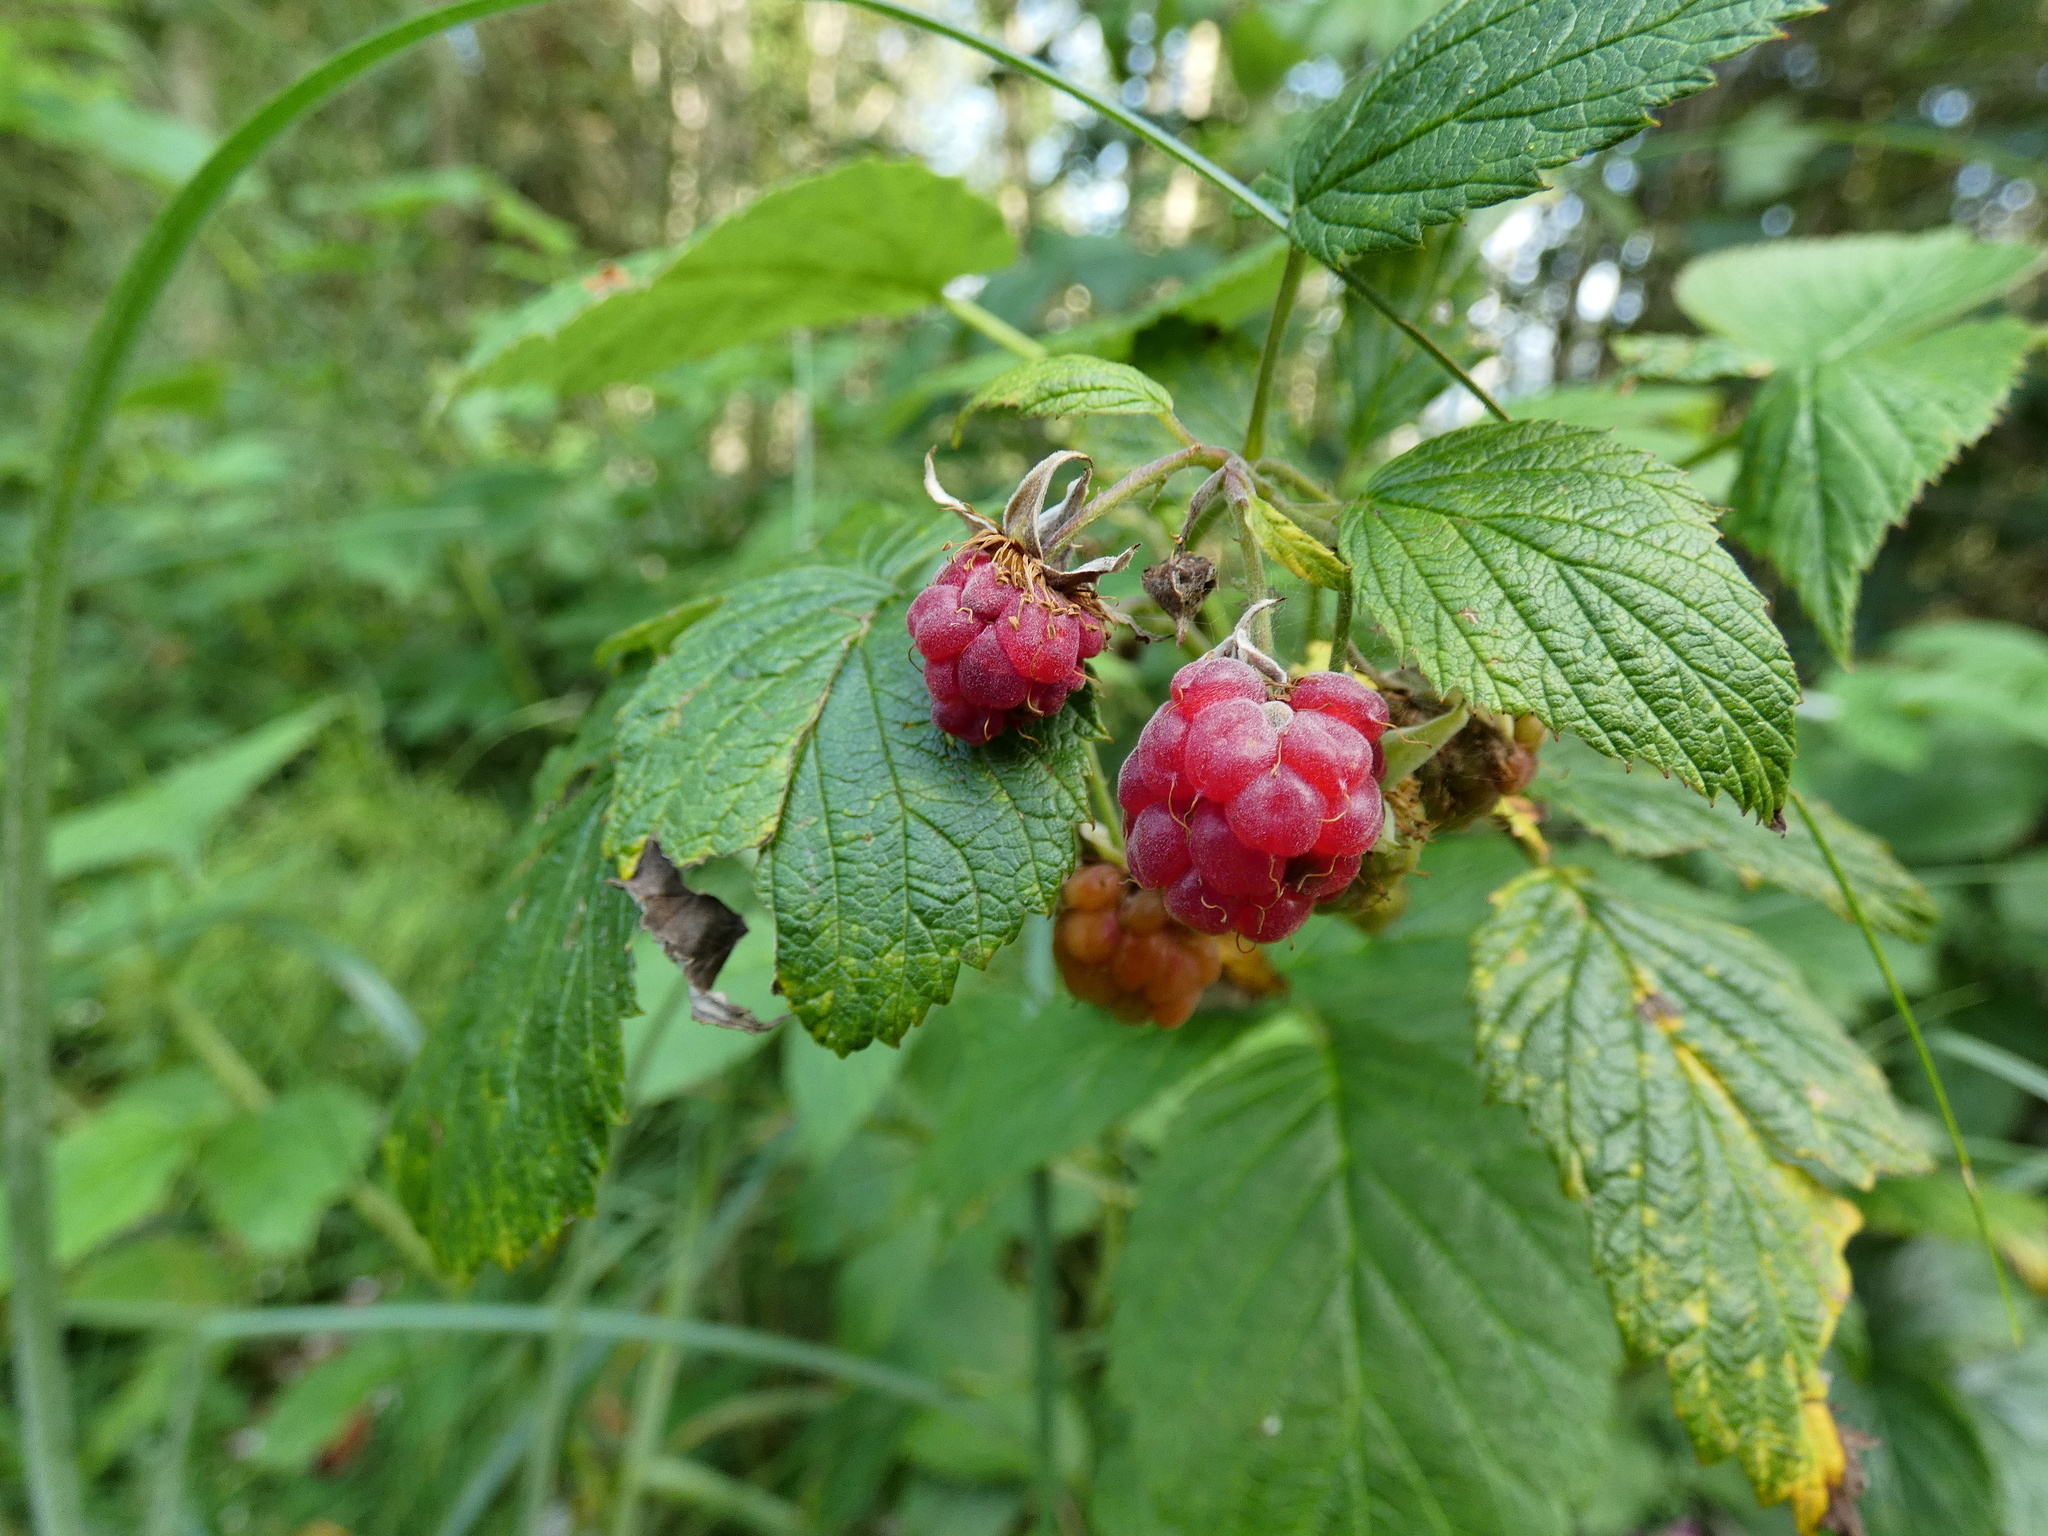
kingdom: Plantae
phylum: Tracheophyta
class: Magnoliopsida
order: Rosales
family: Rosaceae
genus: Rubus
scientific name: Rubus idaeus
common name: Raspberry
